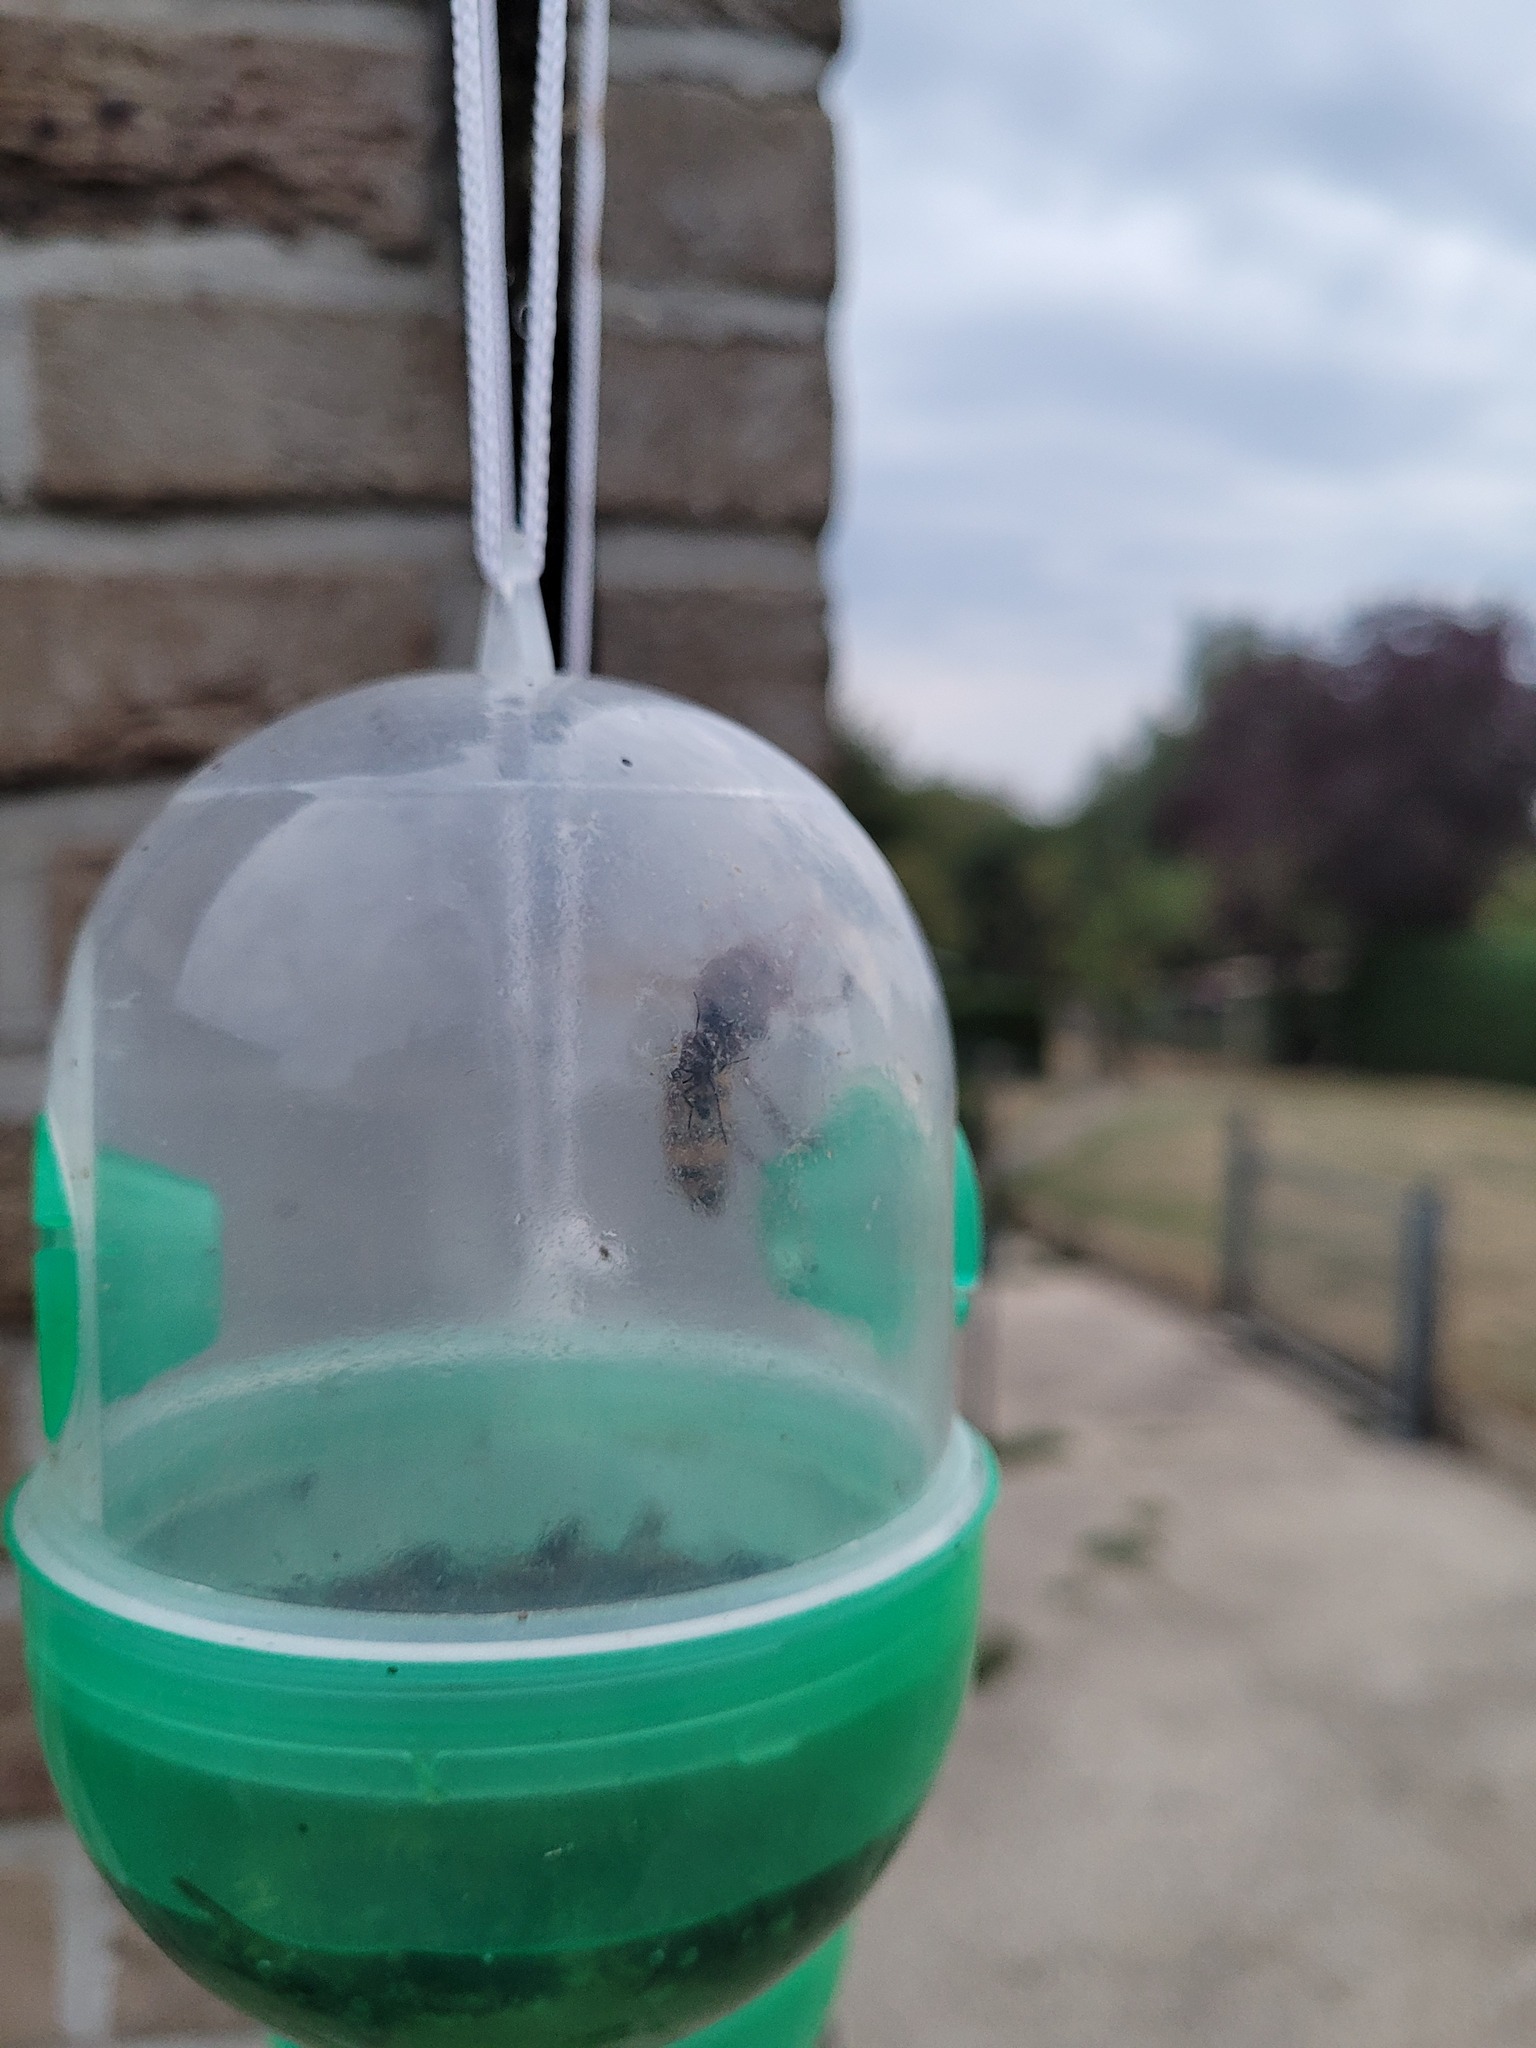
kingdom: Animalia
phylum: Arthropoda
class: Insecta
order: Hymenoptera
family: Vespidae
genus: Vespa
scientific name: Vespa crabro
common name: Hornet
